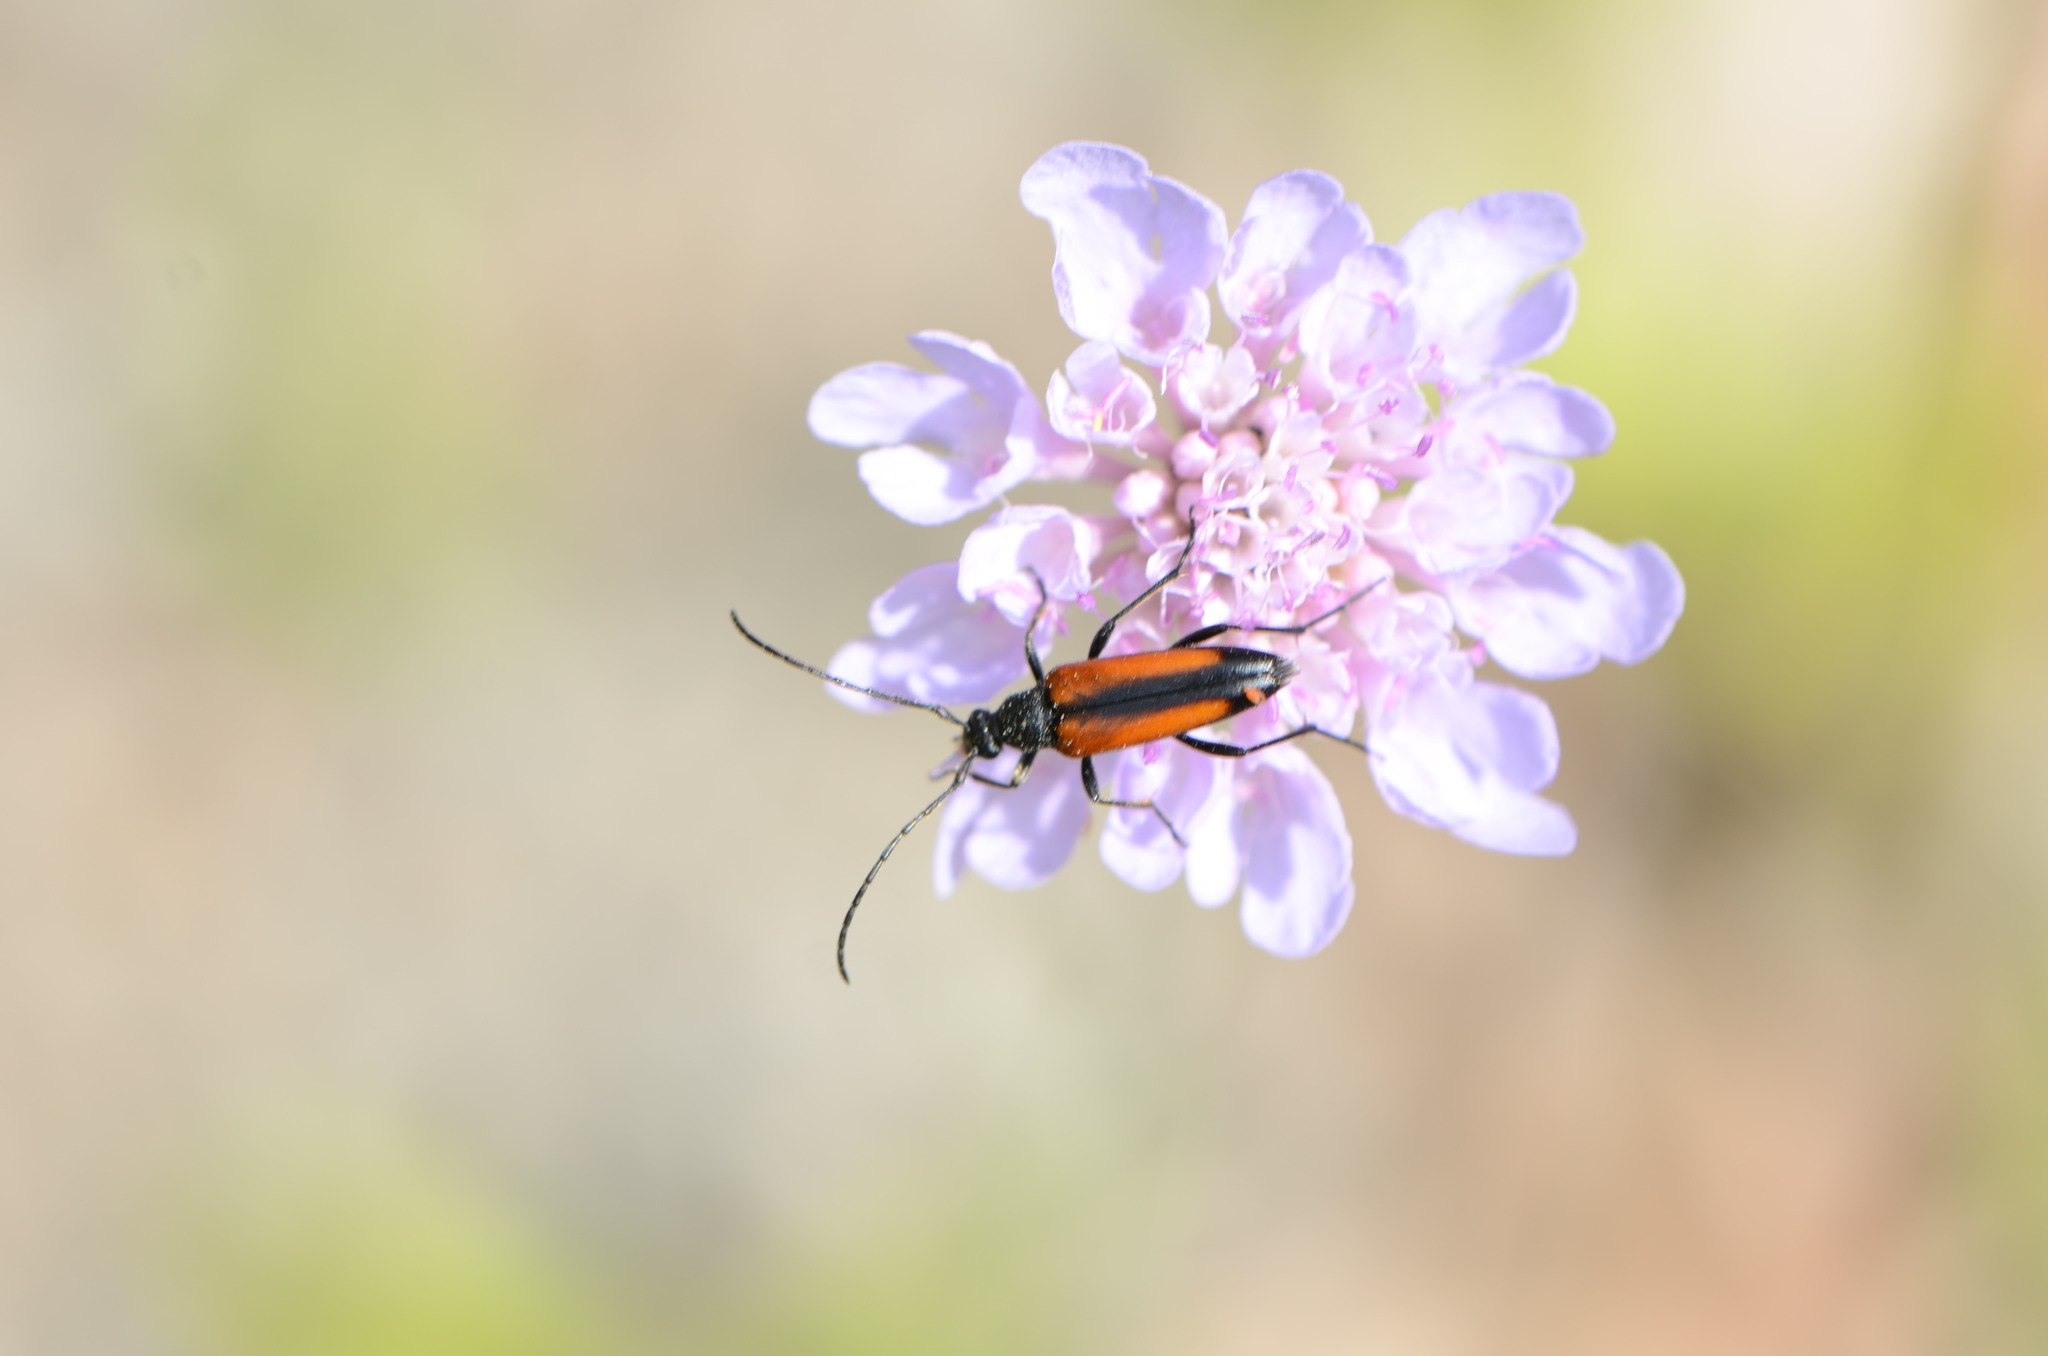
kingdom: Animalia
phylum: Arthropoda
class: Insecta
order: Coleoptera
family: Cerambycidae
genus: Stenurella
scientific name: Stenurella melanura
